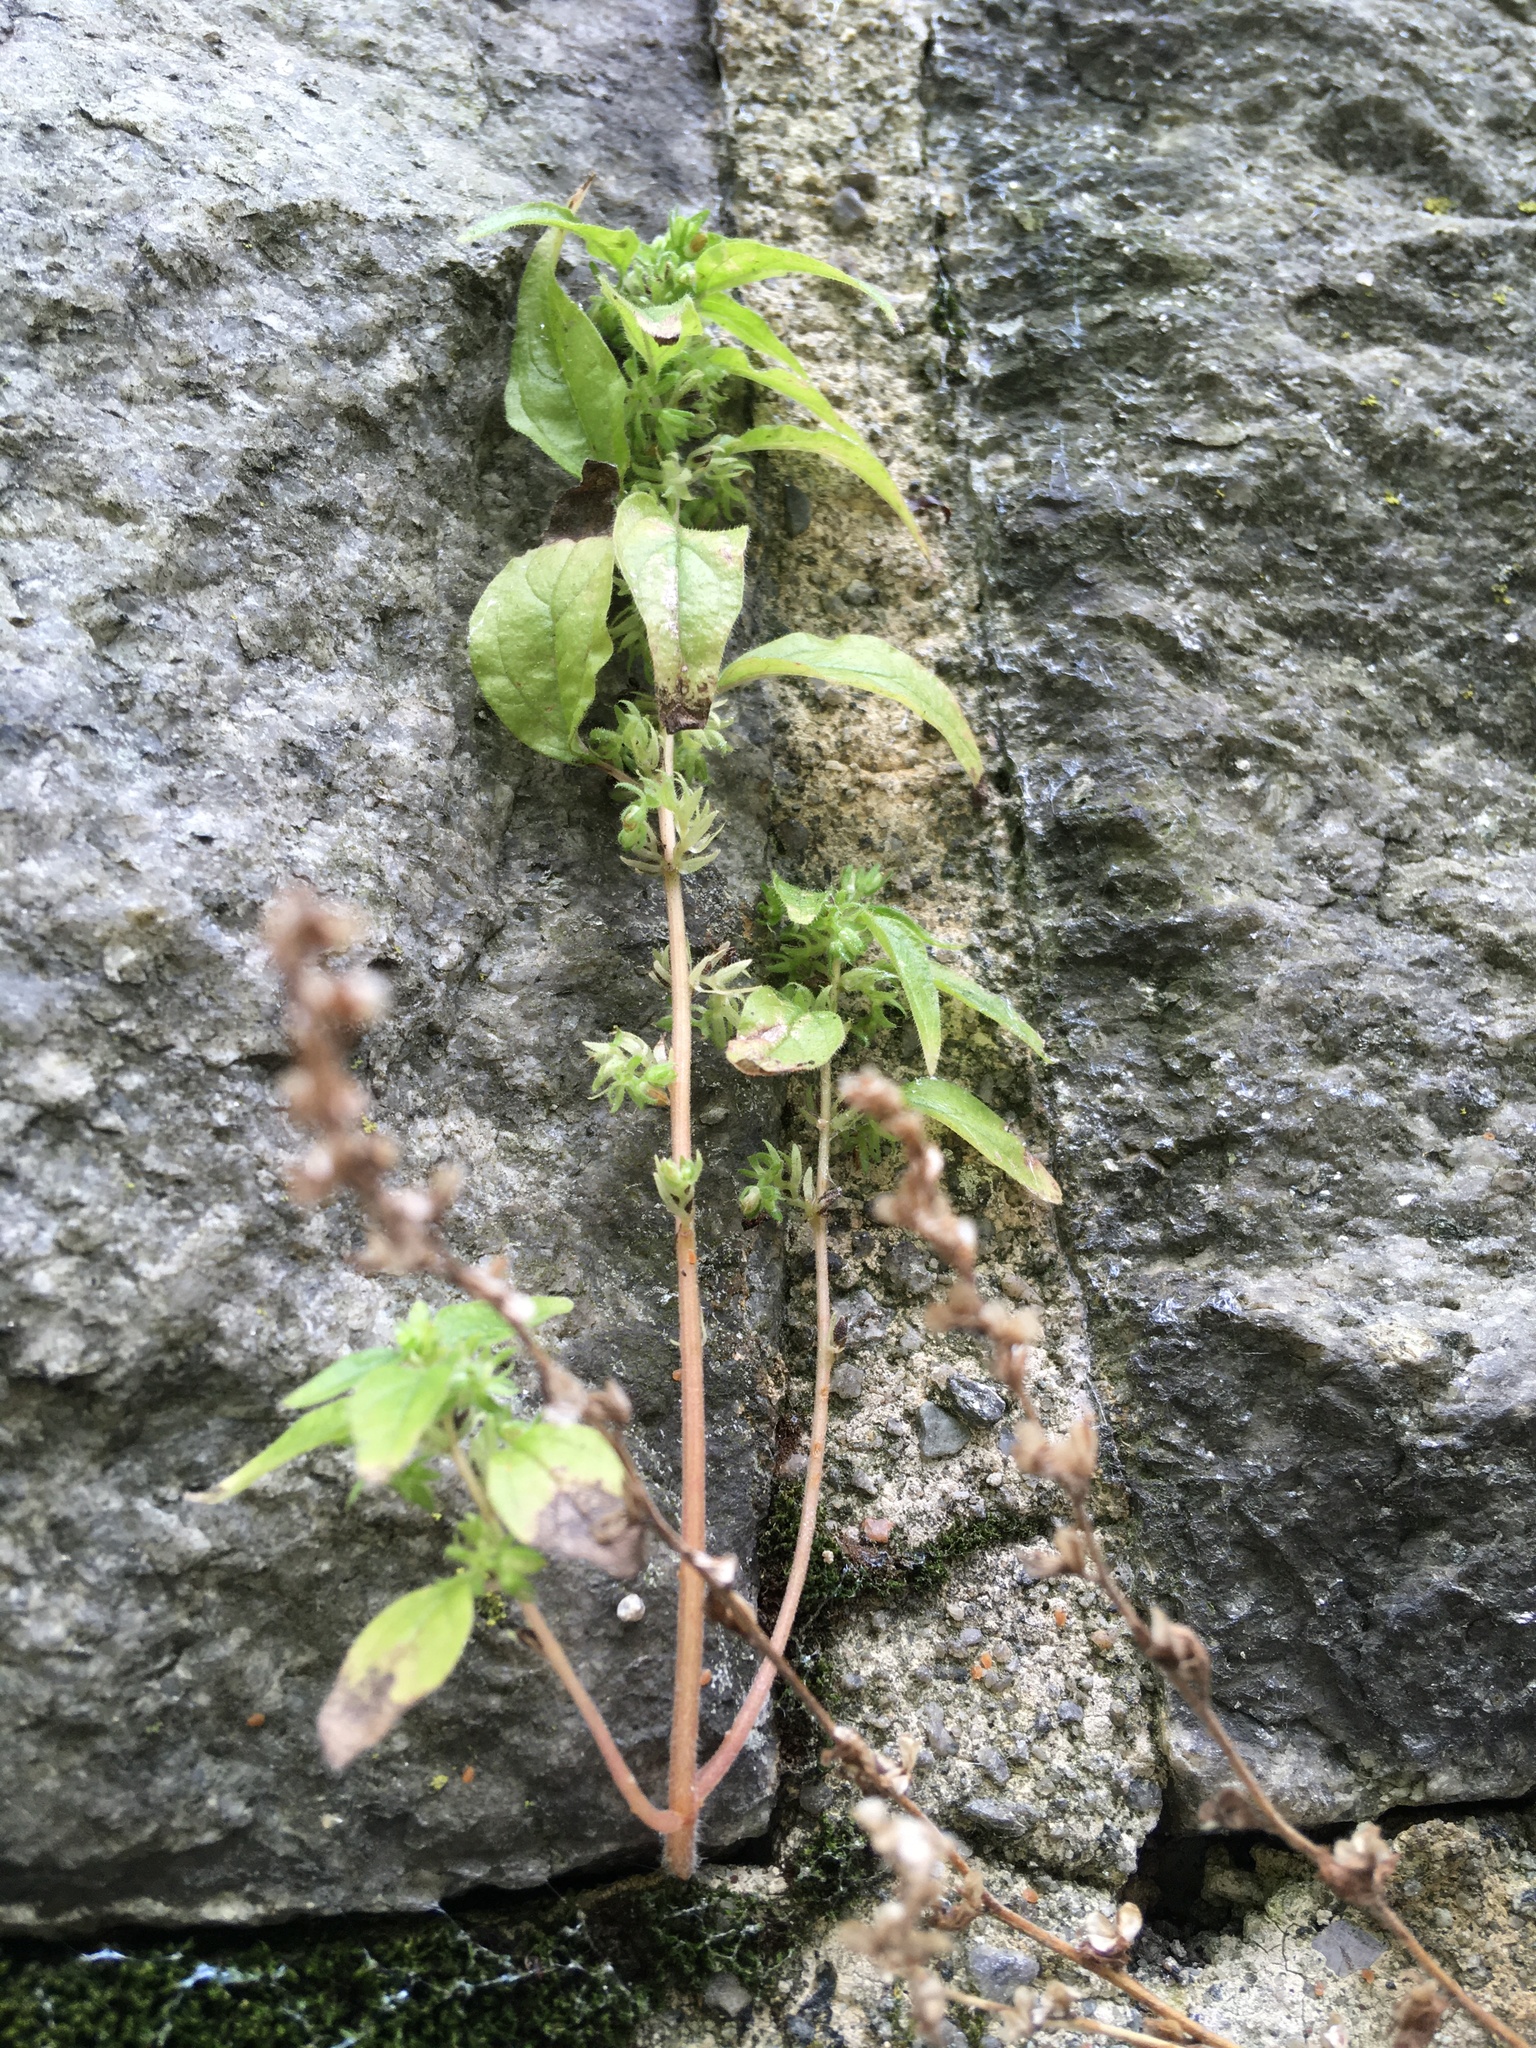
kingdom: Plantae
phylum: Tracheophyta
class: Magnoliopsida
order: Rosales
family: Urticaceae
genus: Parietaria
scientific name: Parietaria pensylvanica
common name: Pennsylvania pellitory
